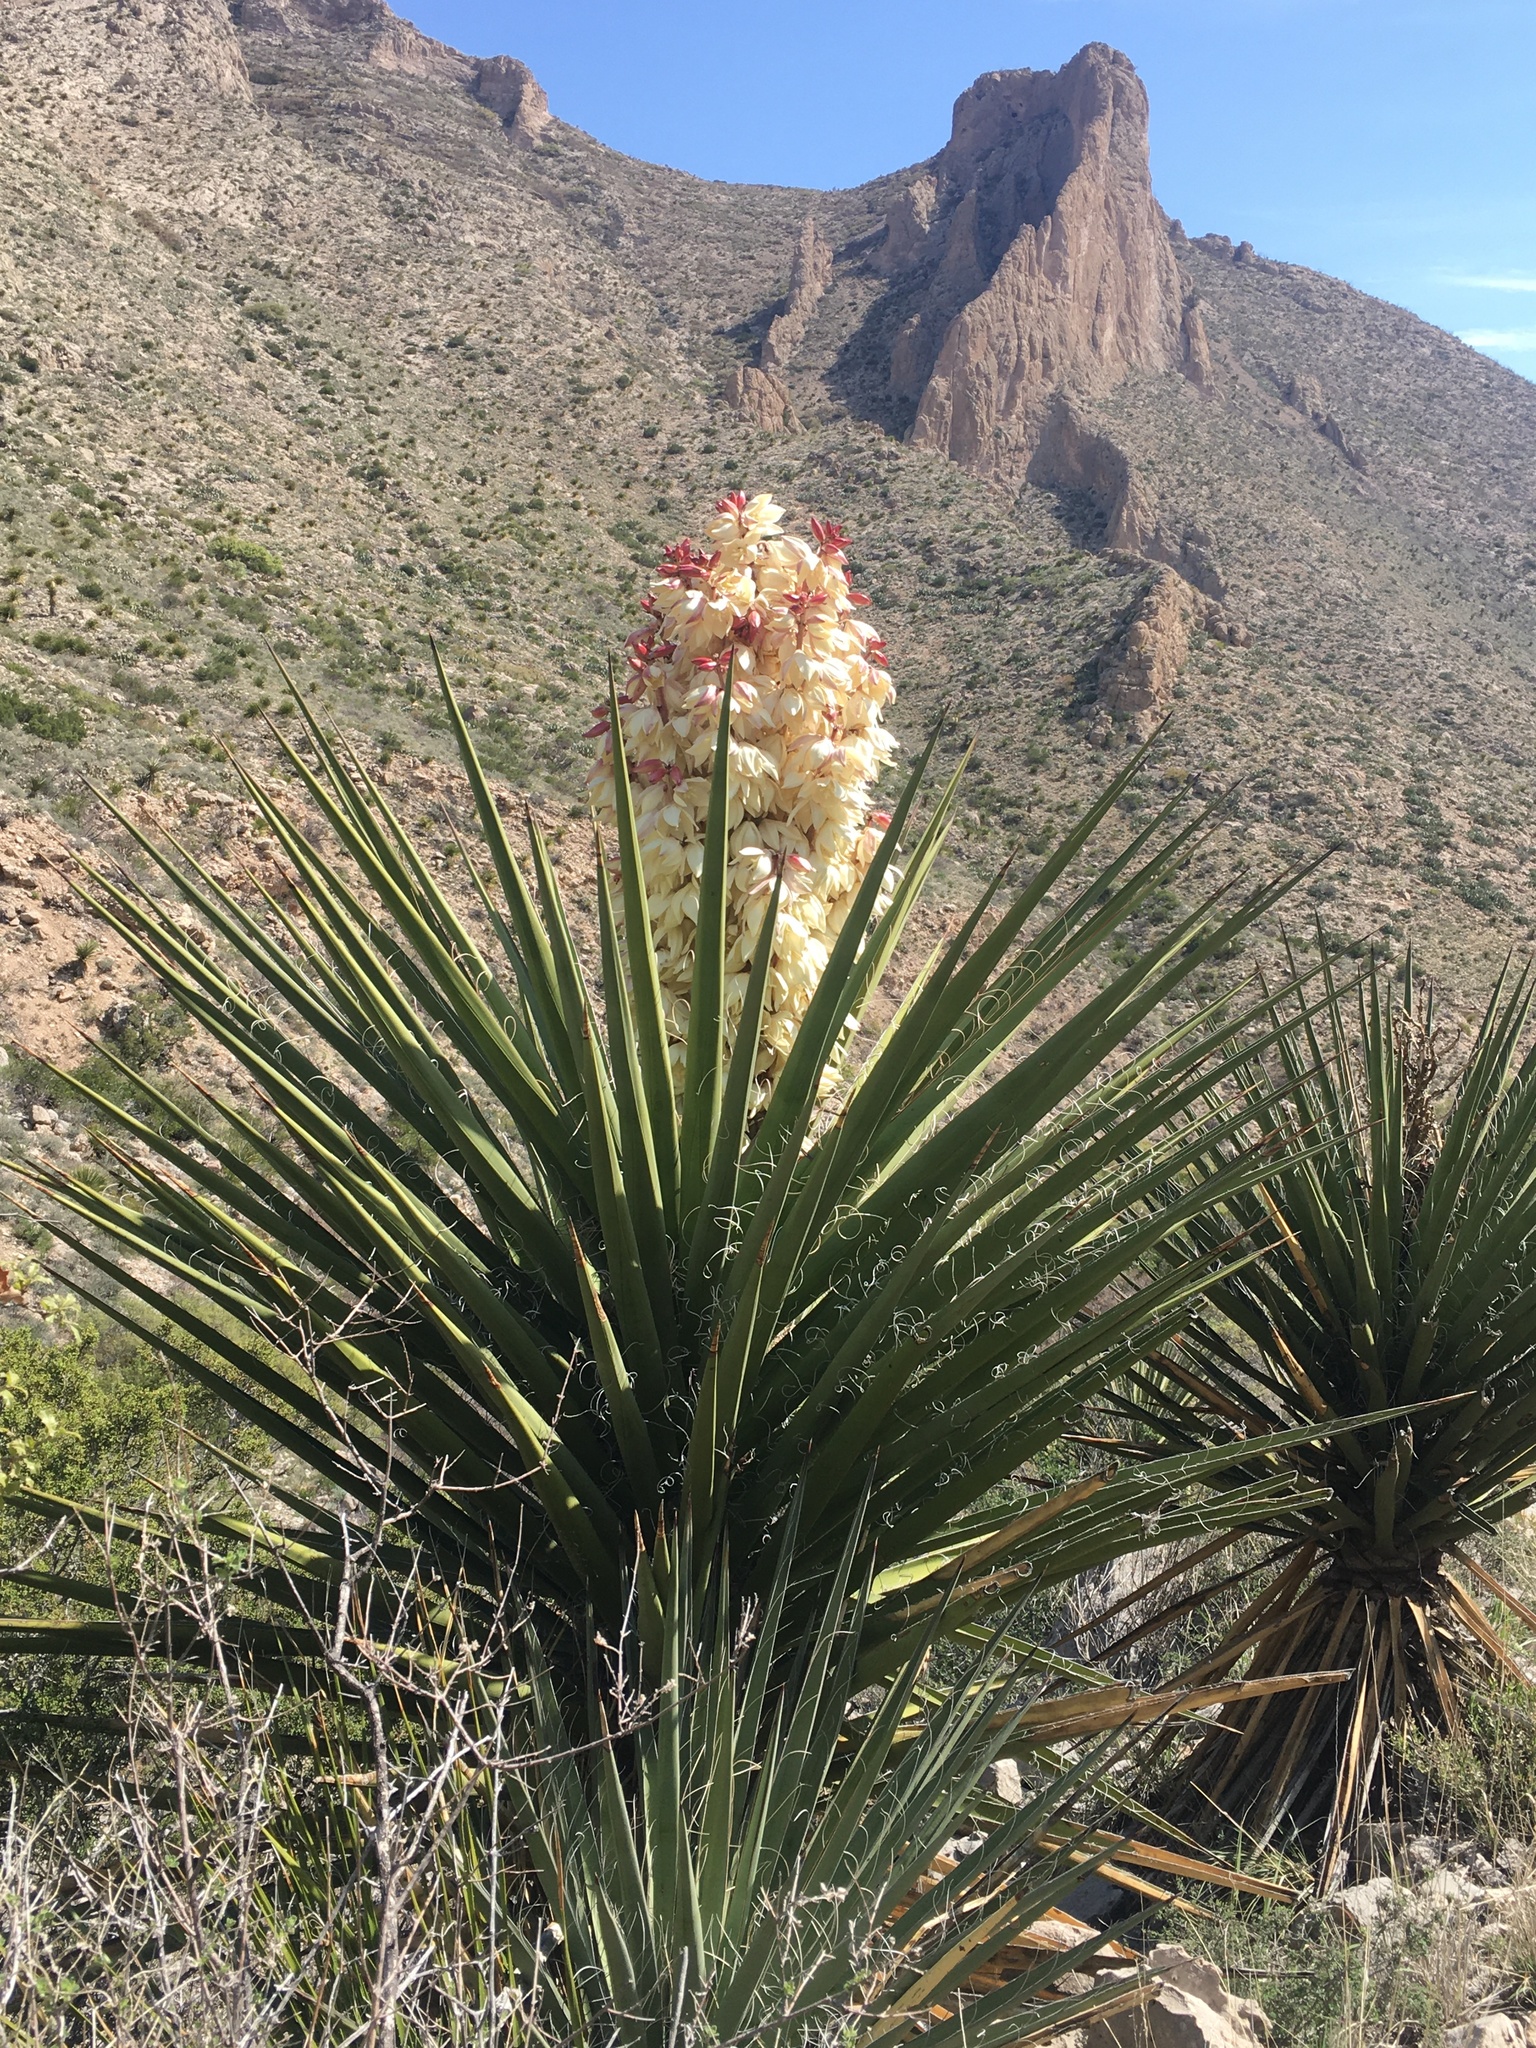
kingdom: Plantae
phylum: Tracheophyta
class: Liliopsida
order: Asparagales
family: Asparagaceae
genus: Yucca
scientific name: Yucca treculiana
